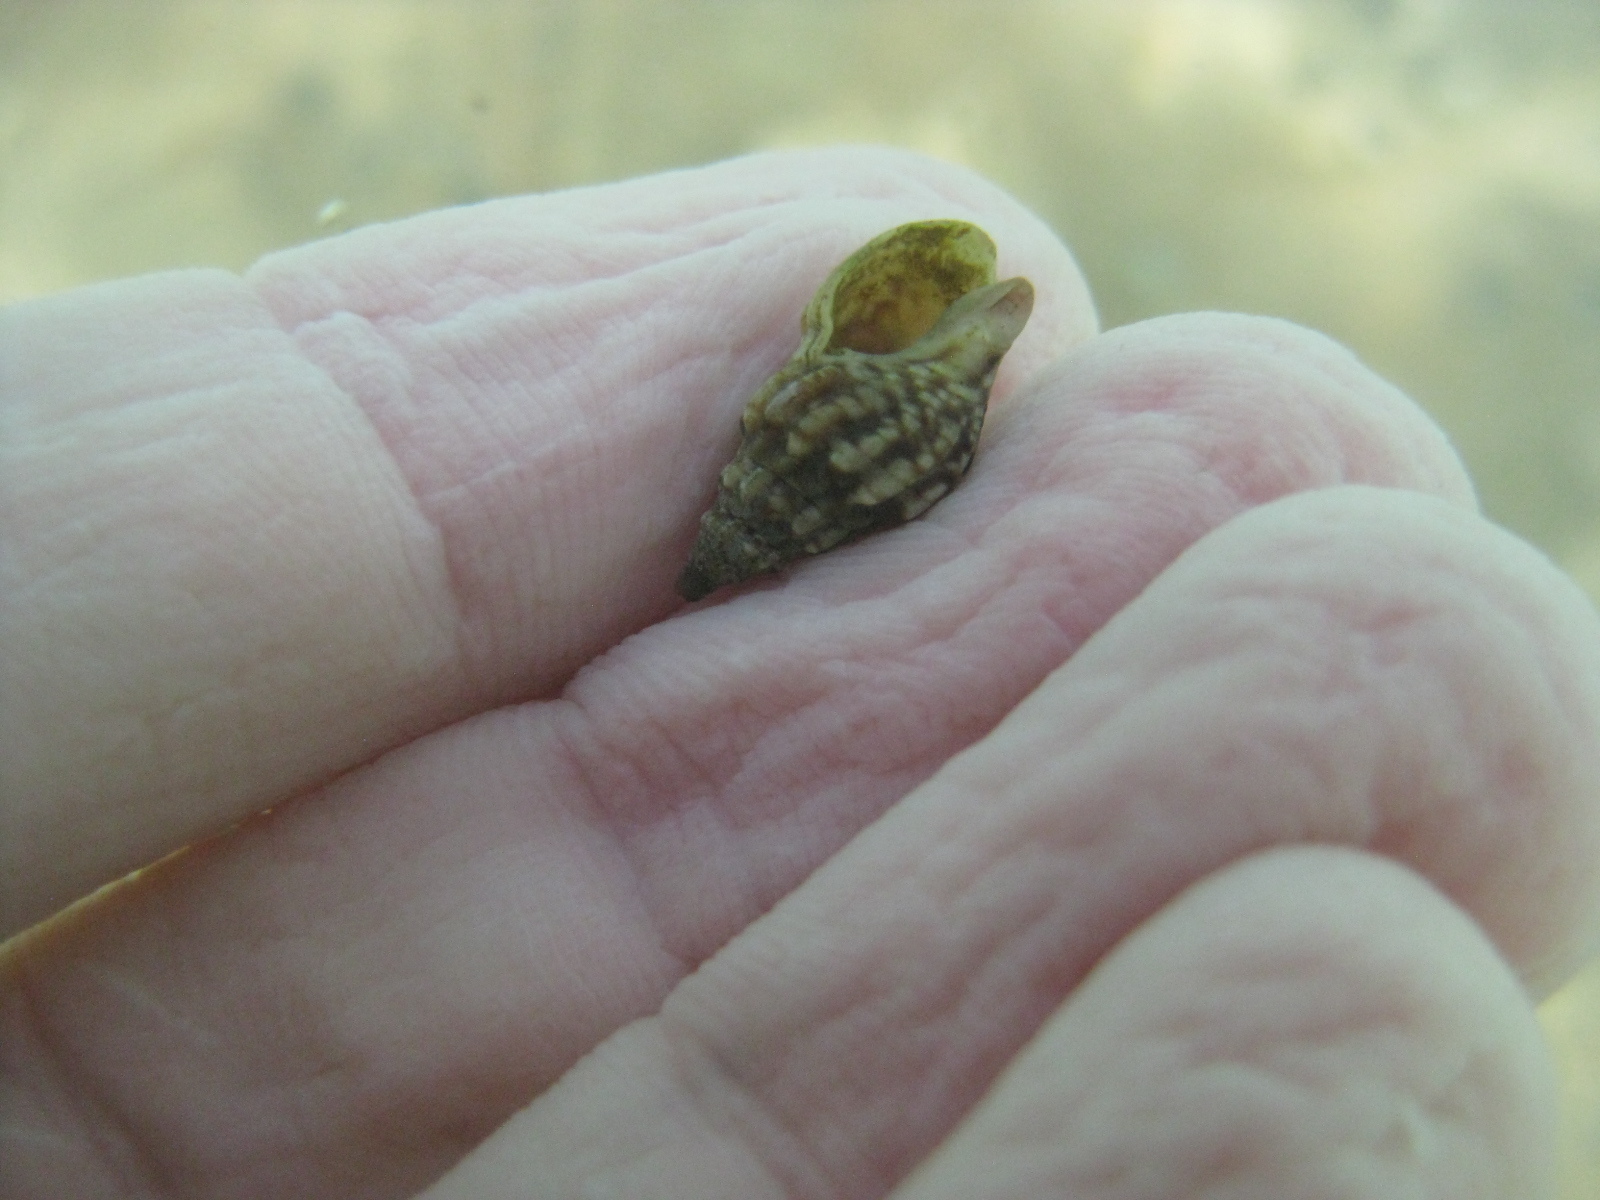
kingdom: Animalia
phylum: Mollusca
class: Gastropoda
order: Neogastropoda
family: Cominellidae
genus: Cominella
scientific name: Cominella quoyana
